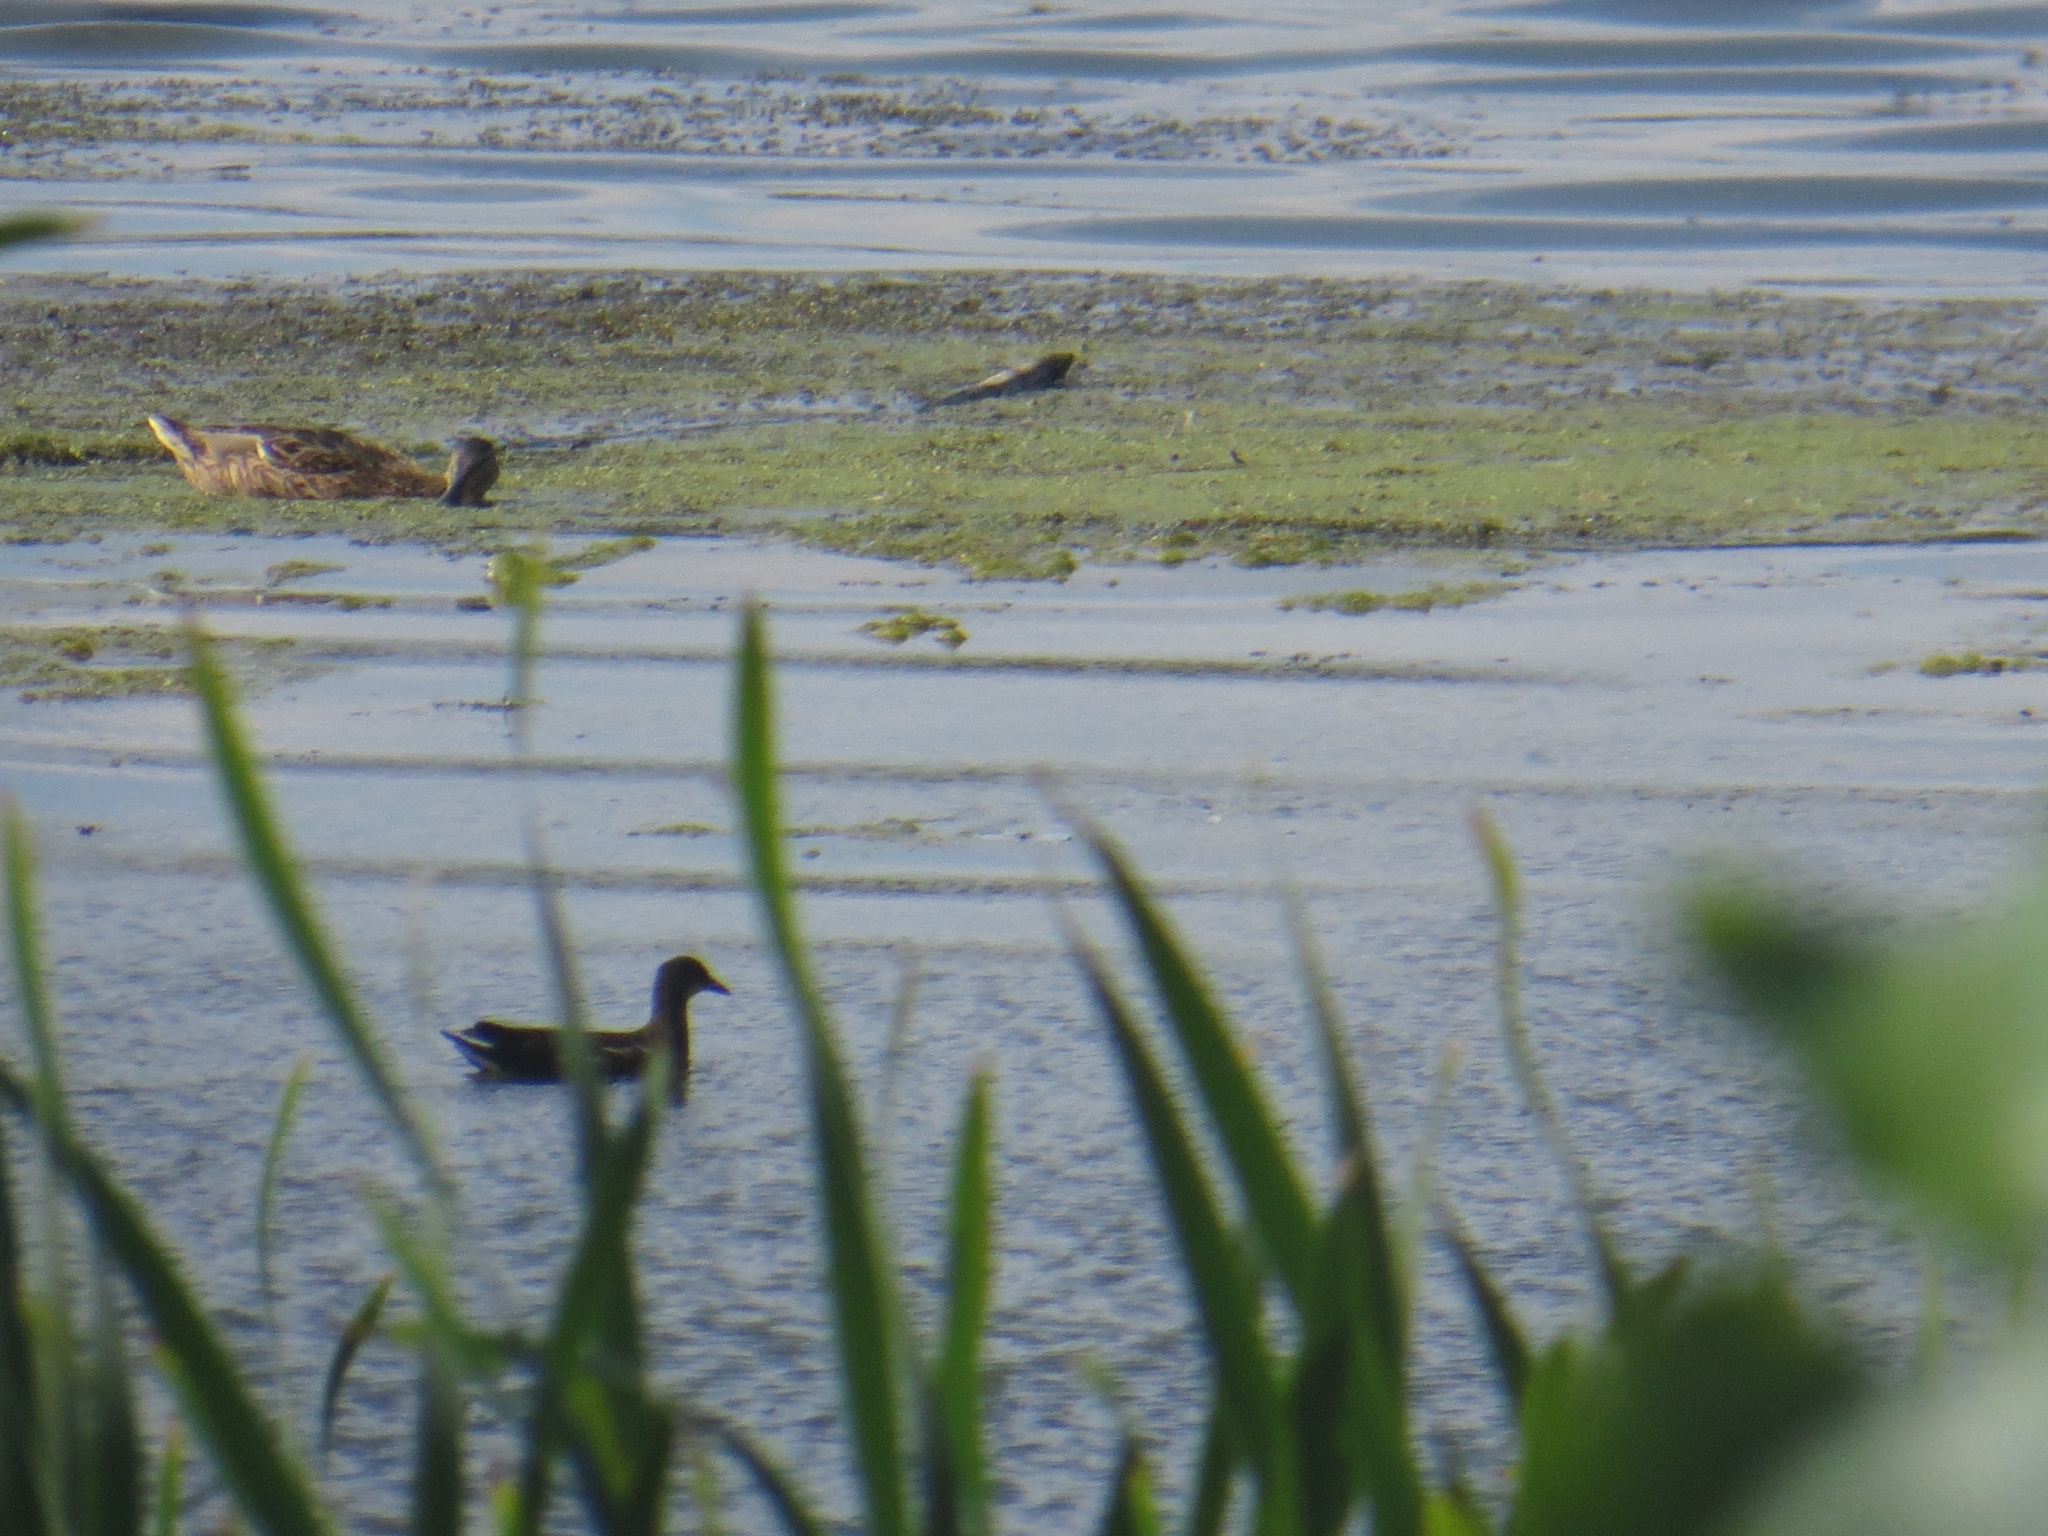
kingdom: Animalia
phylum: Chordata
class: Aves
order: Gruiformes
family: Rallidae
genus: Gallinula
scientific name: Gallinula chloropus
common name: Common moorhen
